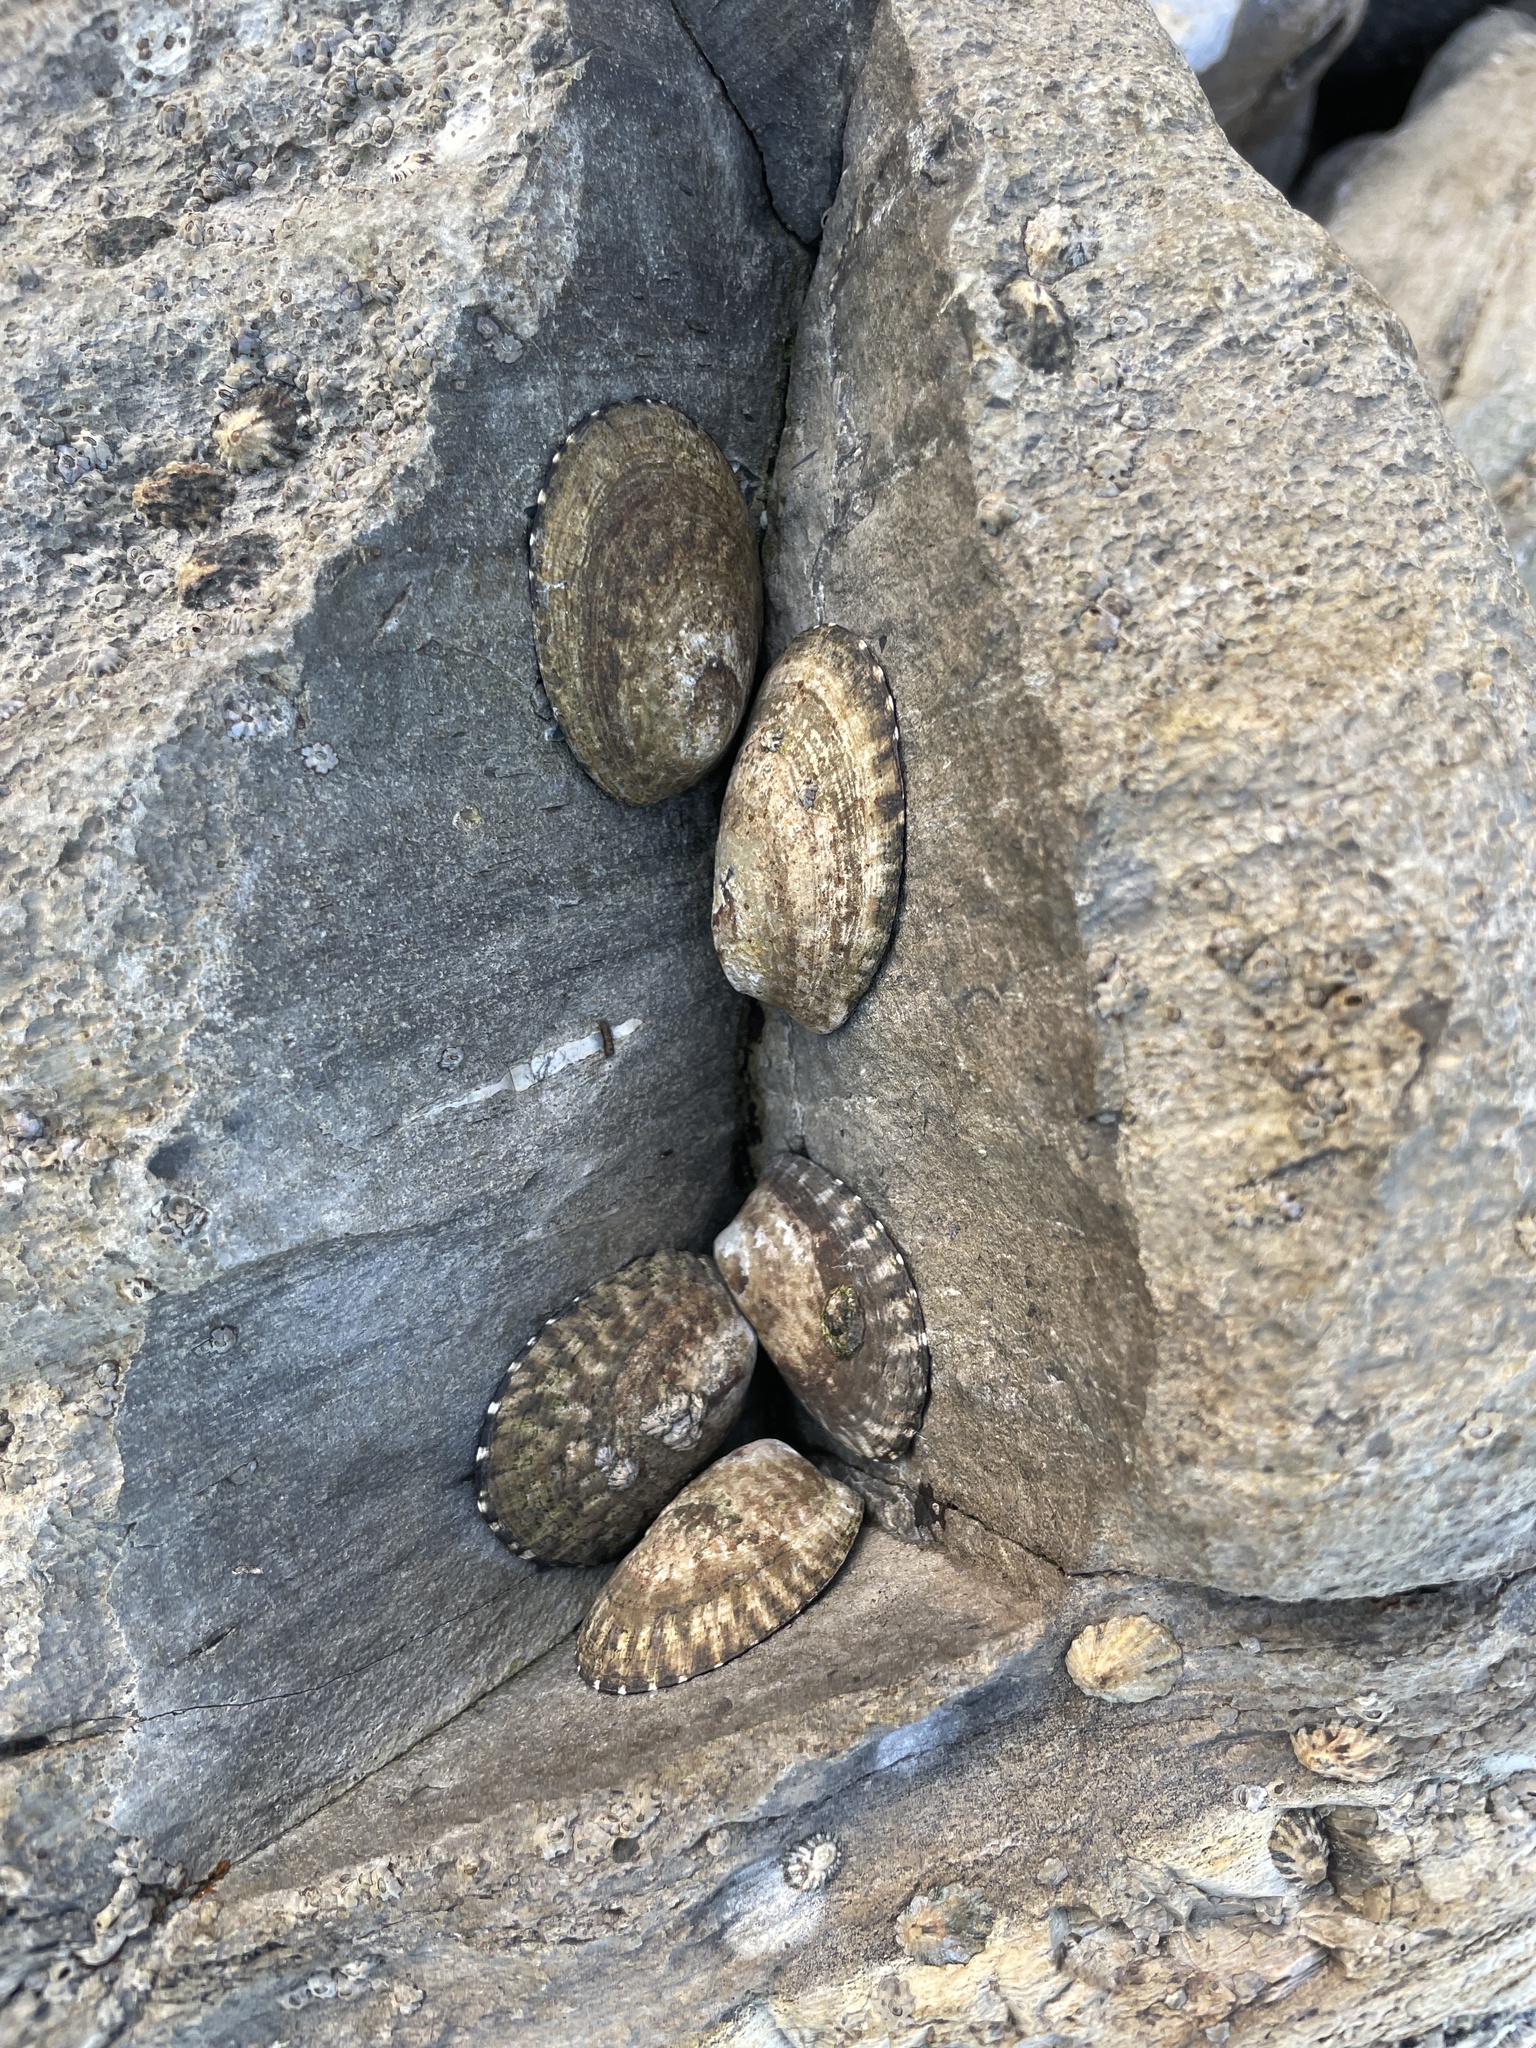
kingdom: Animalia
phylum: Mollusca
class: Gastropoda
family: Lottiidae
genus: Lottia
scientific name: Lottia gigantea
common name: Owl limpet
